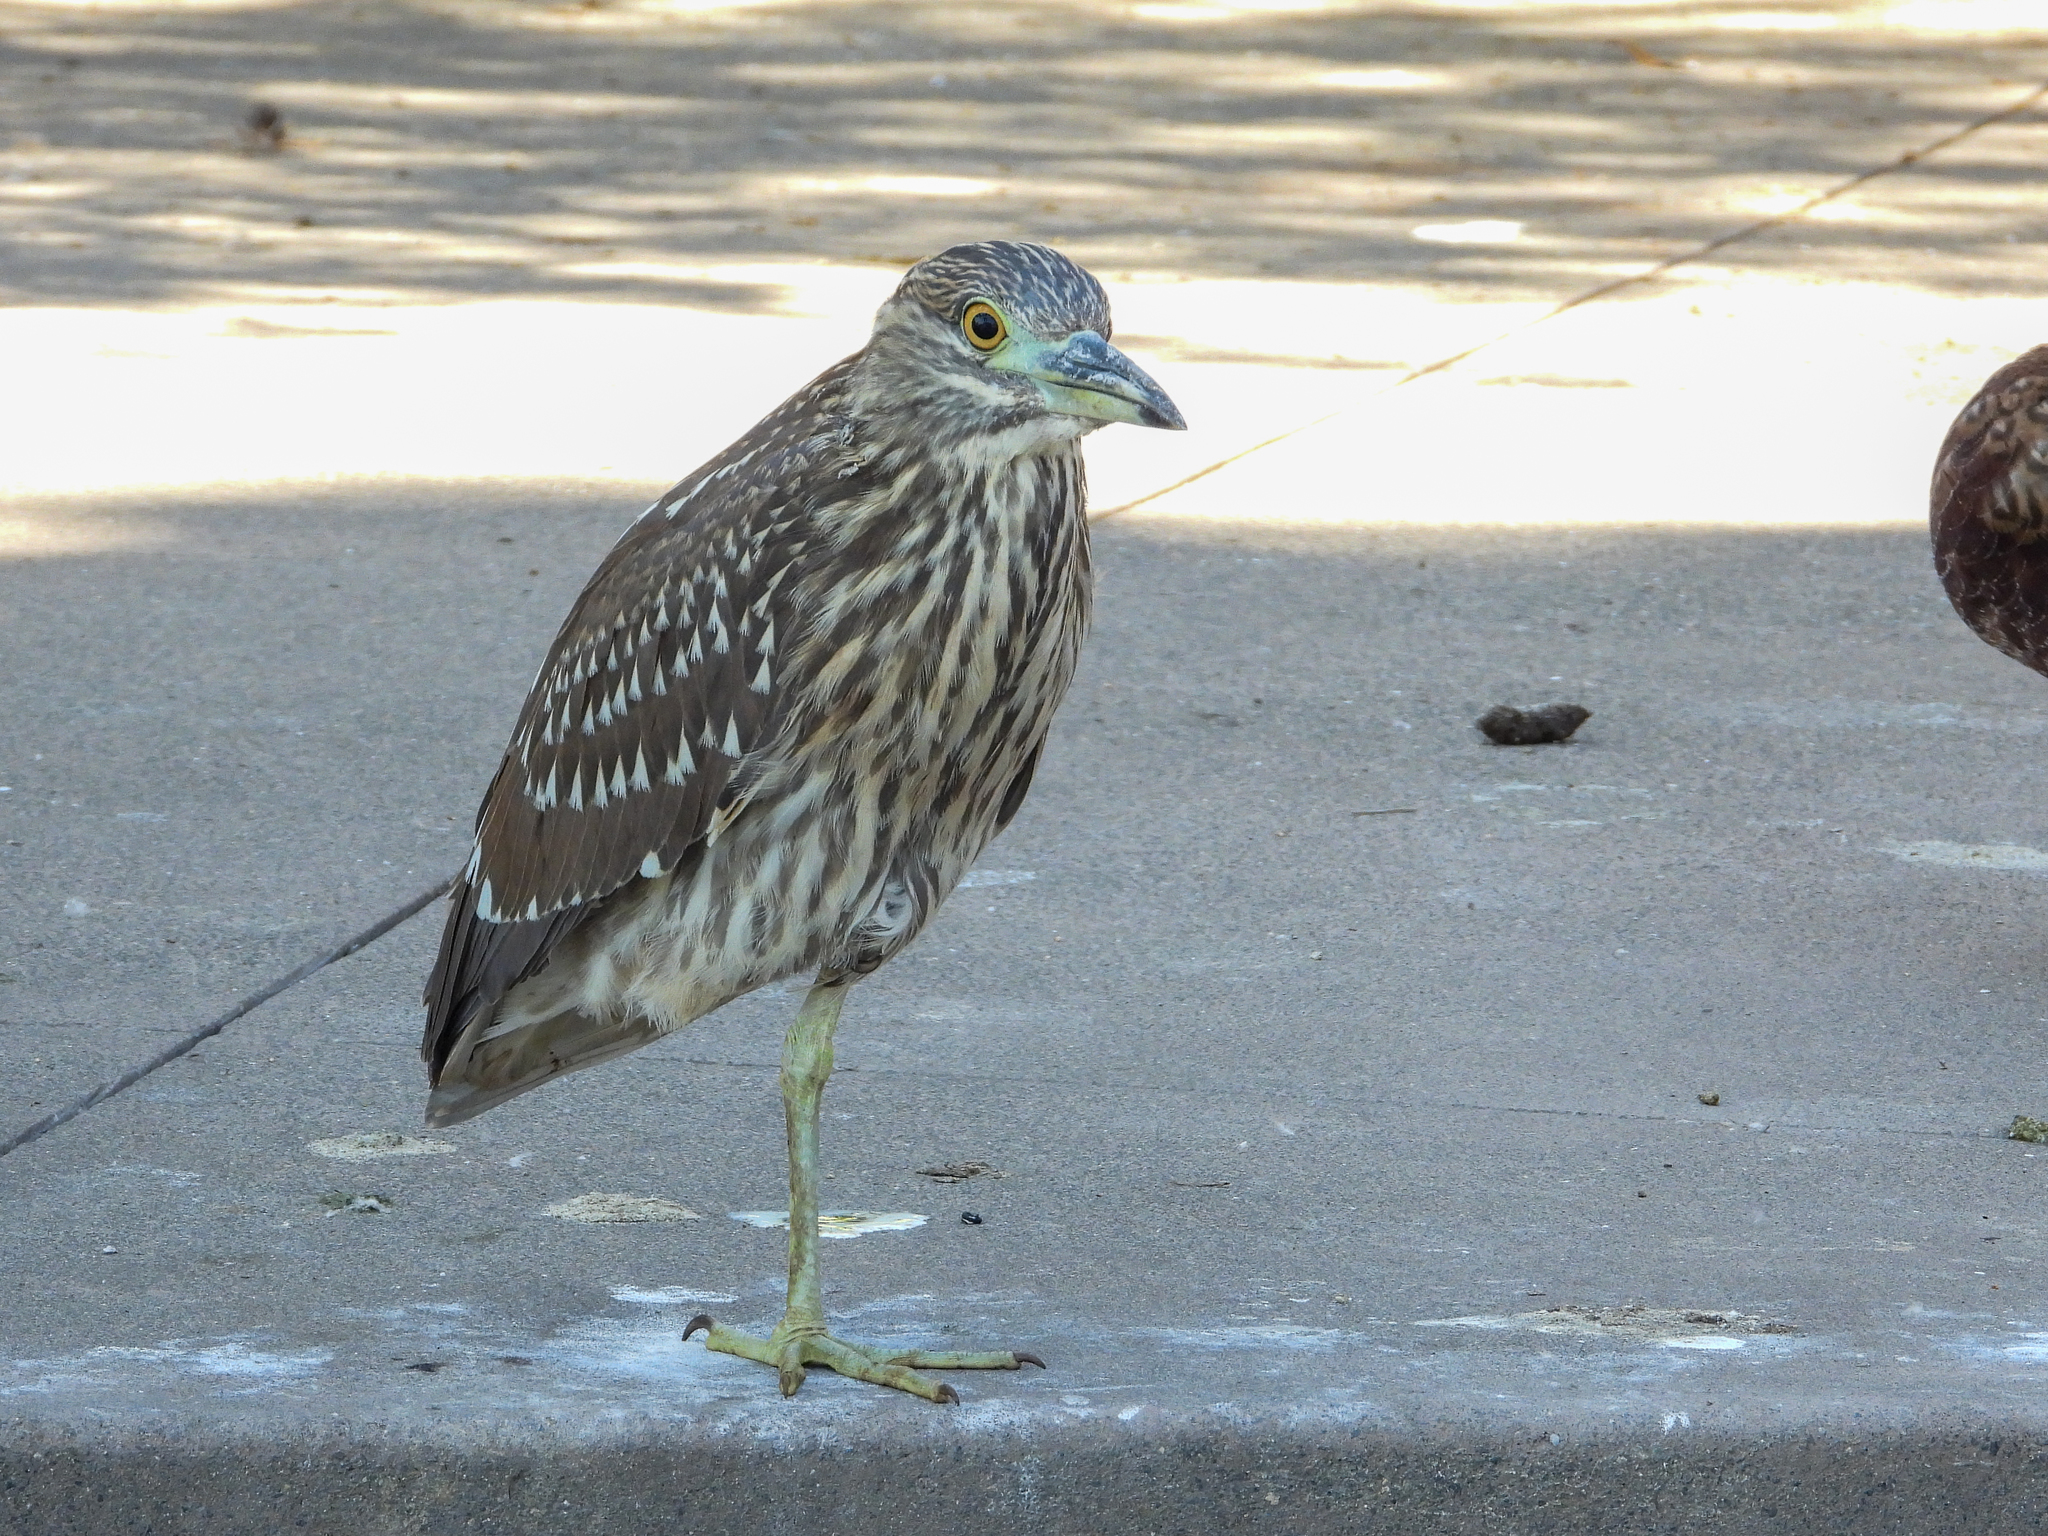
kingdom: Animalia
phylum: Chordata
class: Aves
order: Pelecaniformes
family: Ardeidae
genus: Nycticorax
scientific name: Nycticorax nycticorax
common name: Black-crowned night heron
